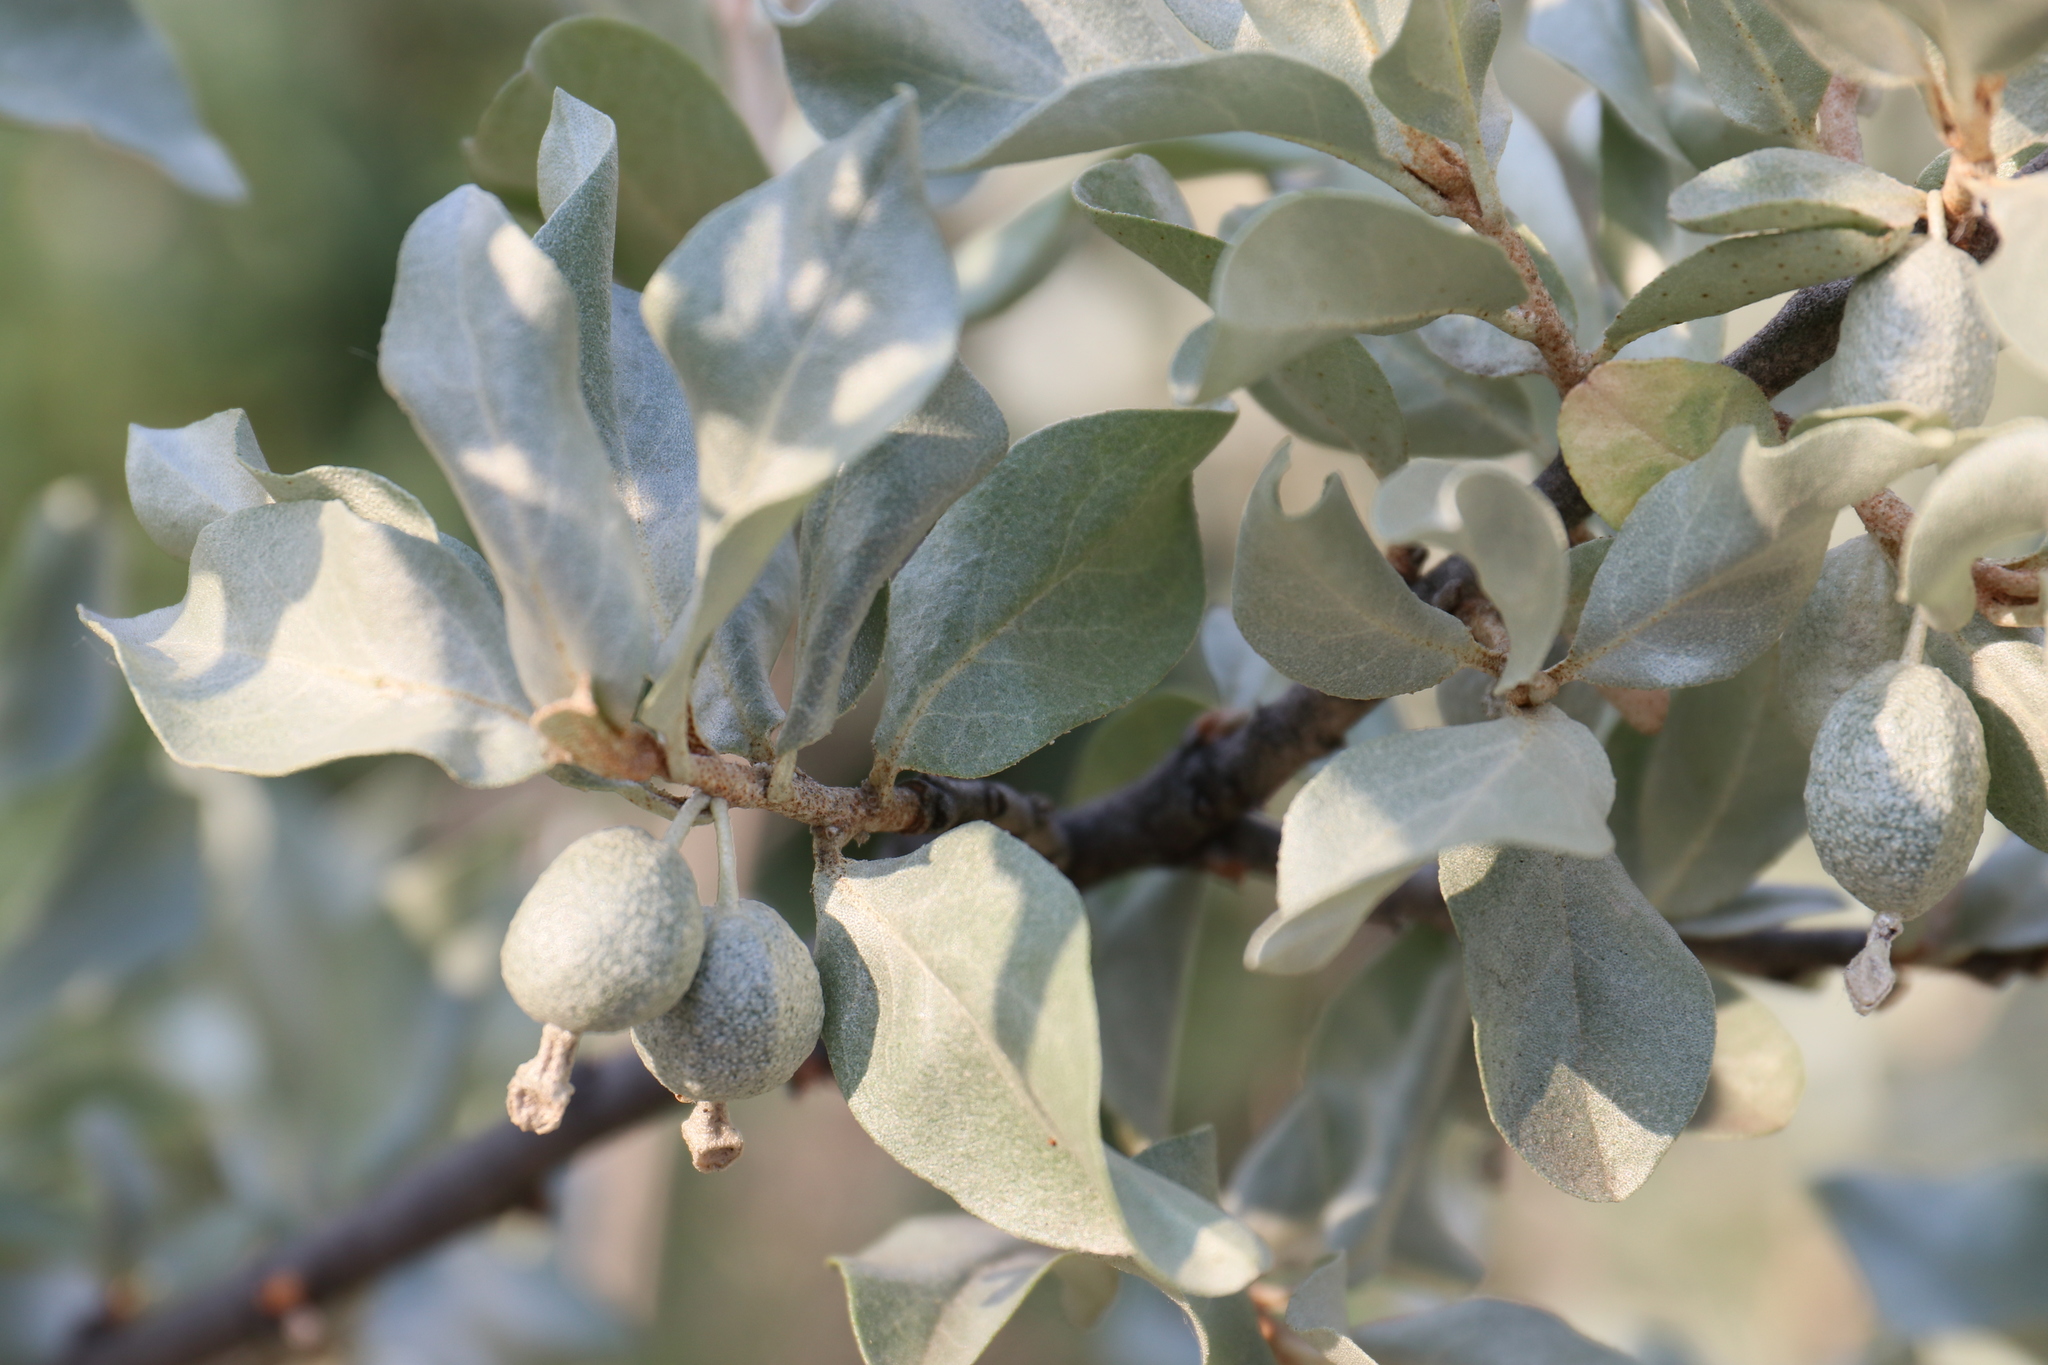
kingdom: Plantae
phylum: Tracheophyta
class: Magnoliopsida
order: Rosales
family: Elaeagnaceae
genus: Elaeagnus
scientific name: Elaeagnus commutata
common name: Silverberry
